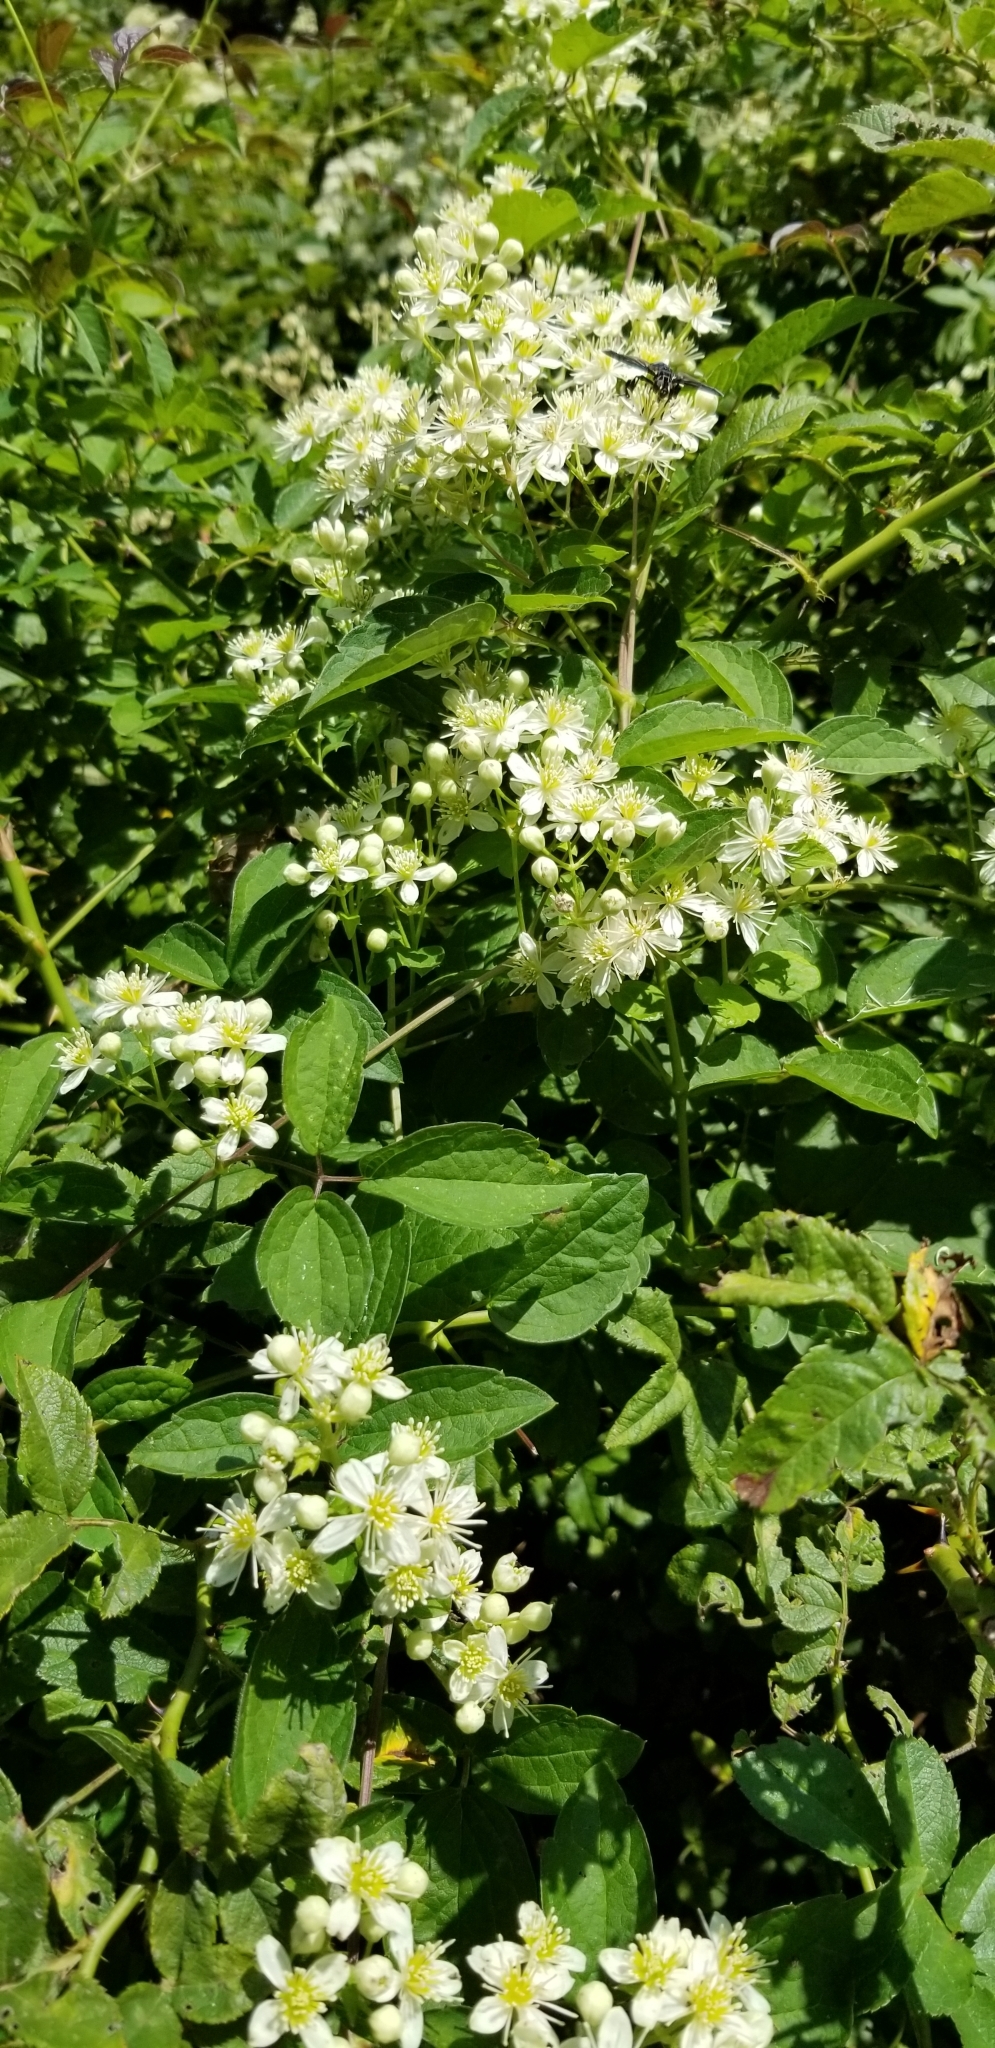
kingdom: Plantae
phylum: Tracheophyta
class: Magnoliopsida
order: Ranunculales
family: Ranunculaceae
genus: Clematis
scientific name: Clematis virginiana
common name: Virgin's-bower
